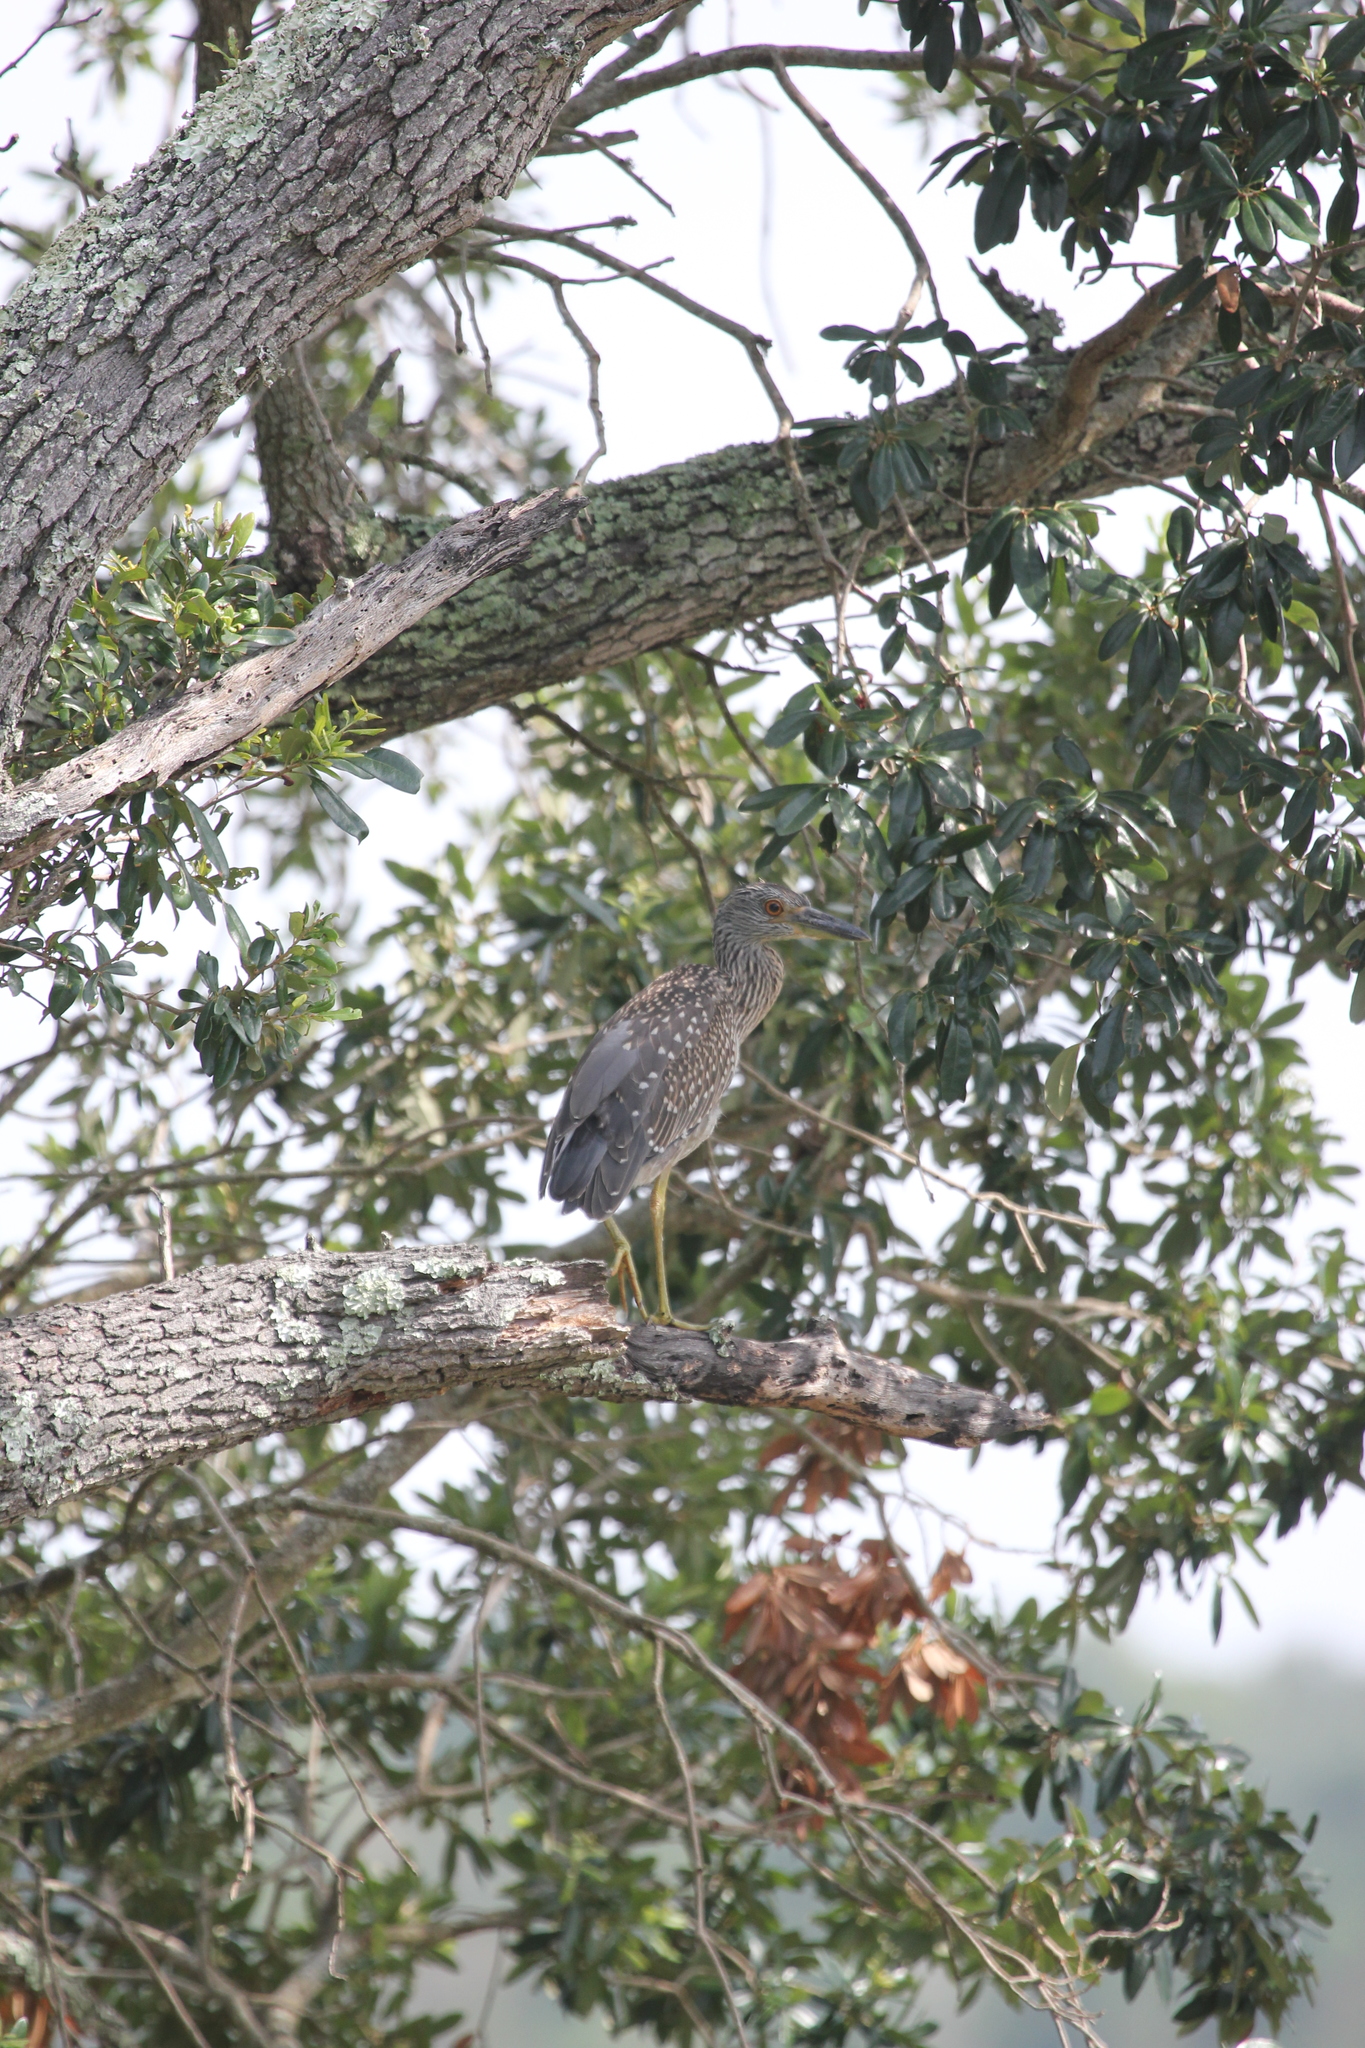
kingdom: Animalia
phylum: Chordata
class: Aves
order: Pelecaniformes
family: Ardeidae
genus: Nyctanassa
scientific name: Nyctanassa violacea
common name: Yellow-crowned night heron
